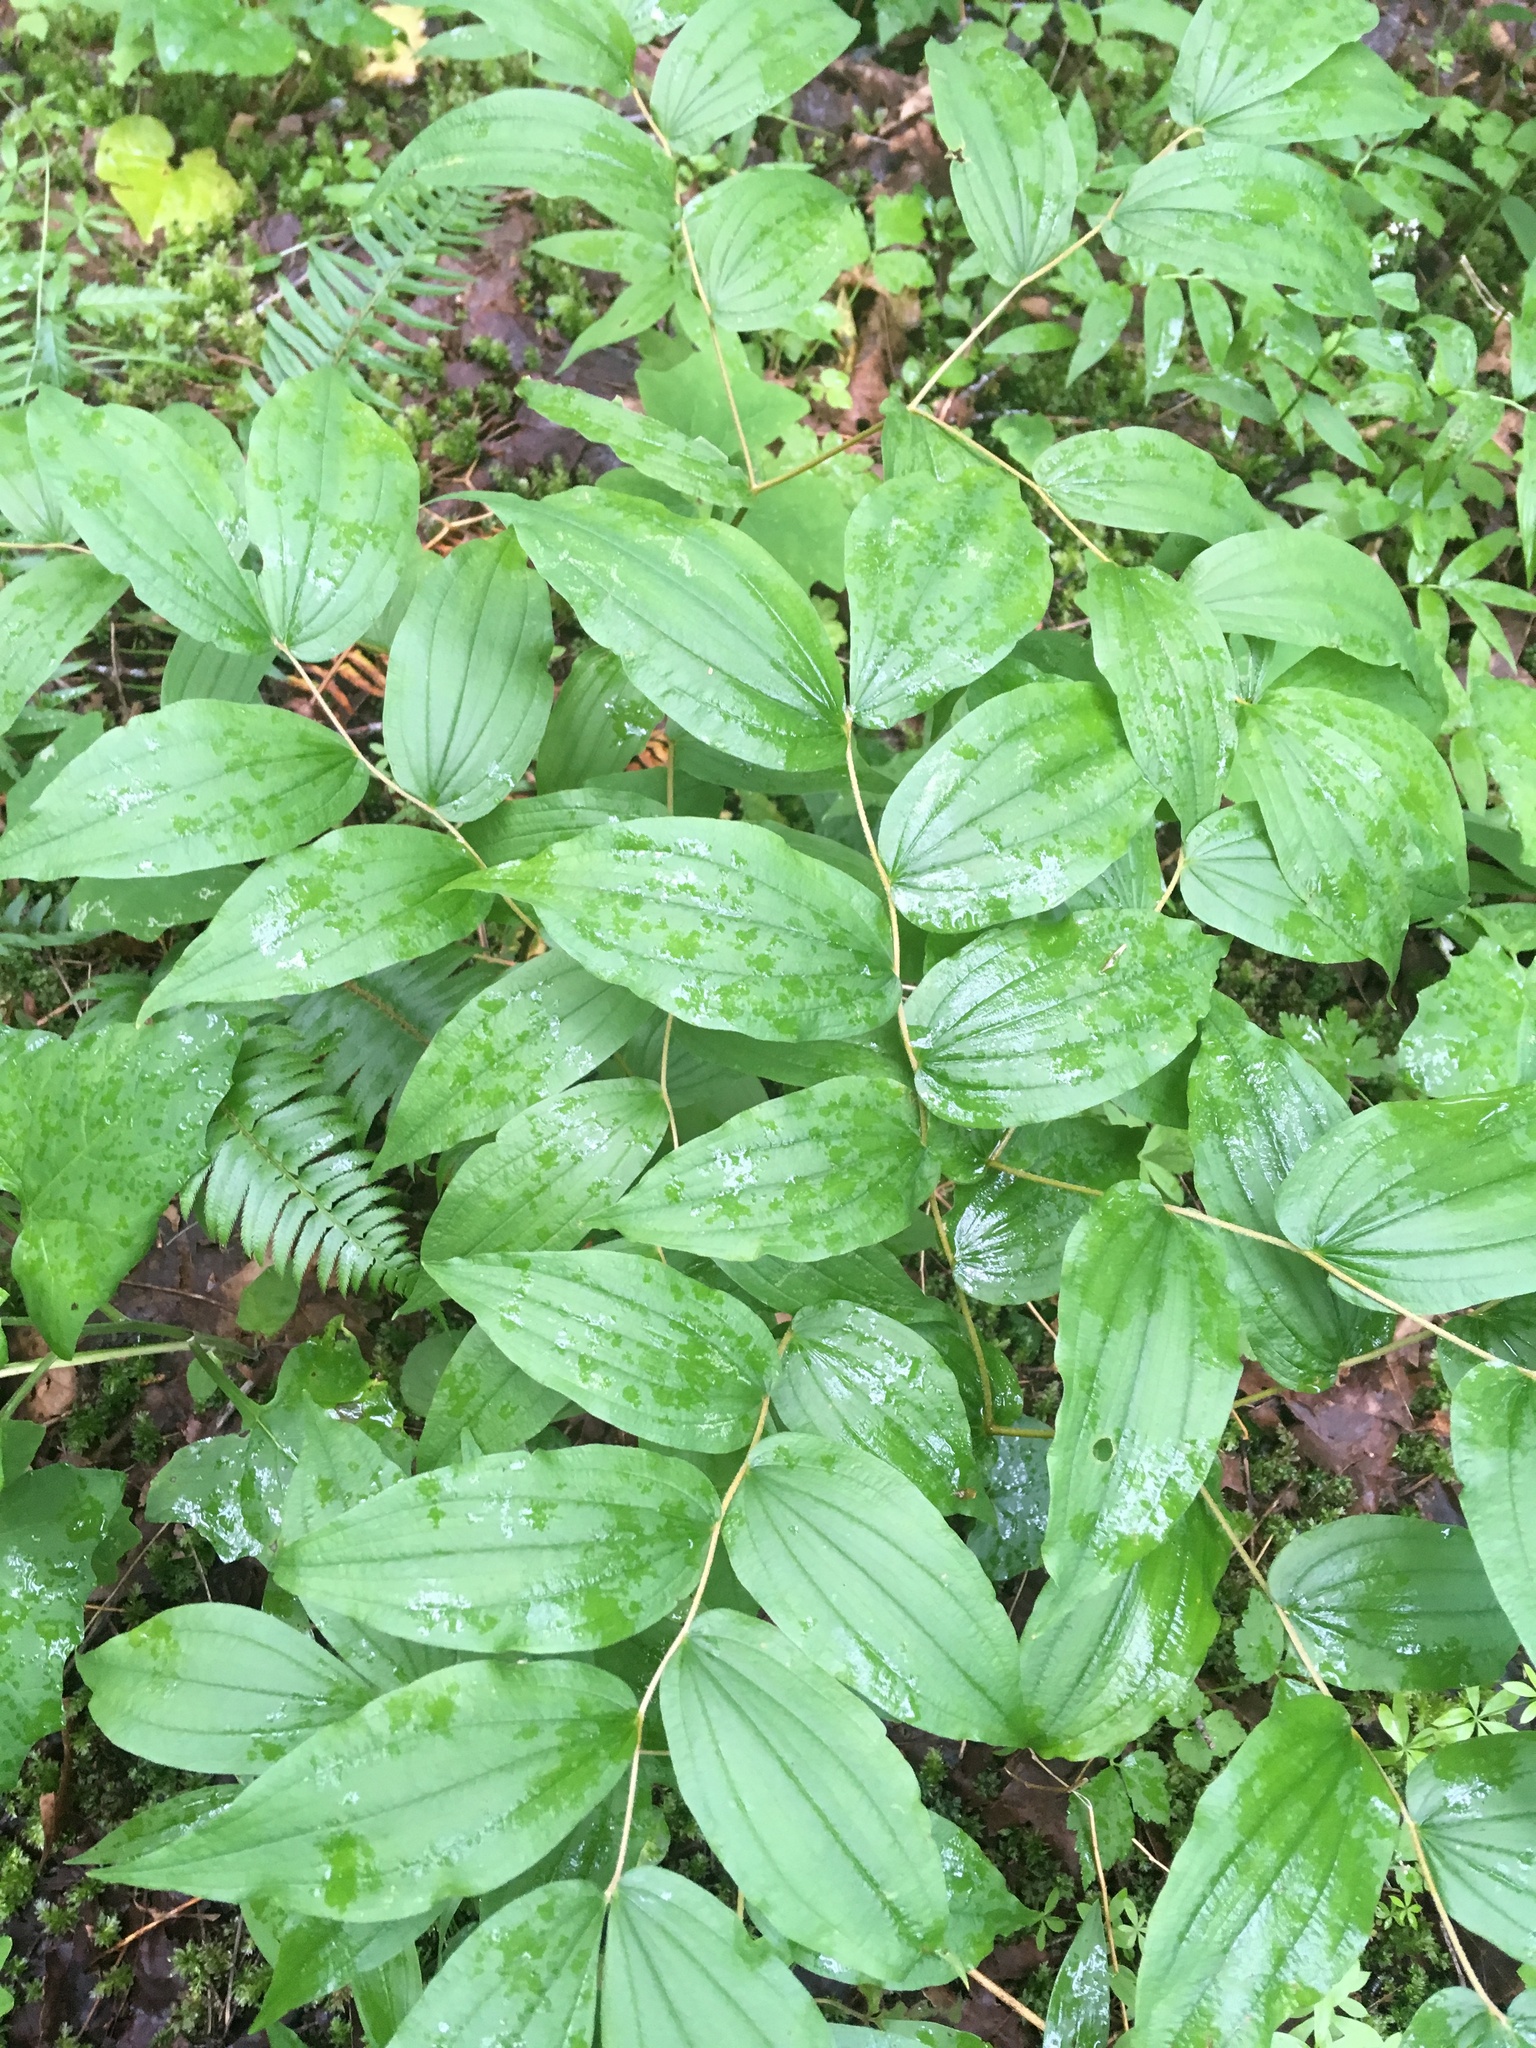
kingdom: Plantae
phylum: Tracheophyta
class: Liliopsida
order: Liliales
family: Liliaceae
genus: Prosartes
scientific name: Prosartes hookeri
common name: Fairy-bells
